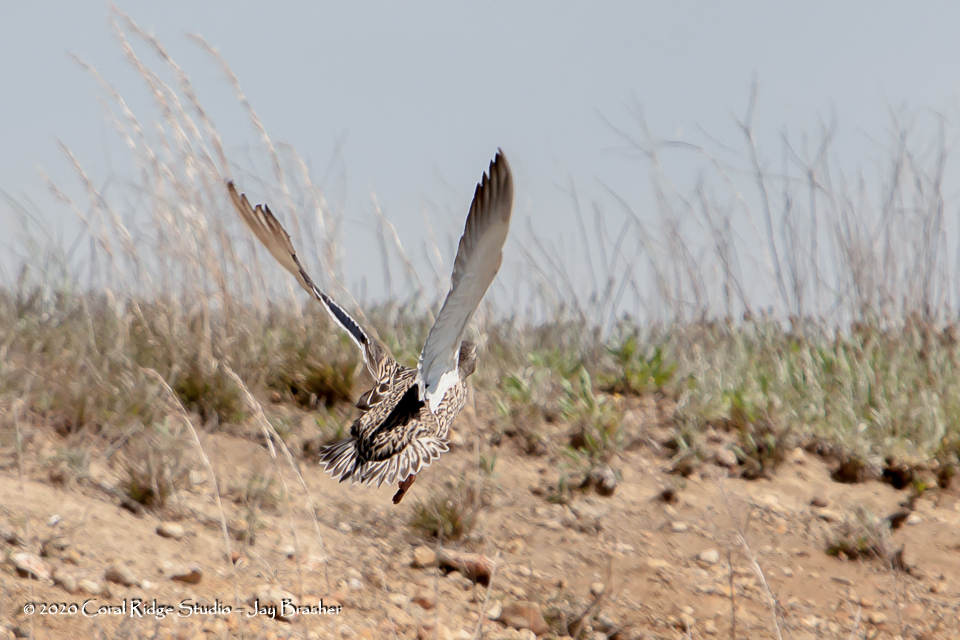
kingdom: Animalia
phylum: Chordata
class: Aves
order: Anseriformes
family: Anatidae
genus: Anas
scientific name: Anas platyrhynchos
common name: Mallard
